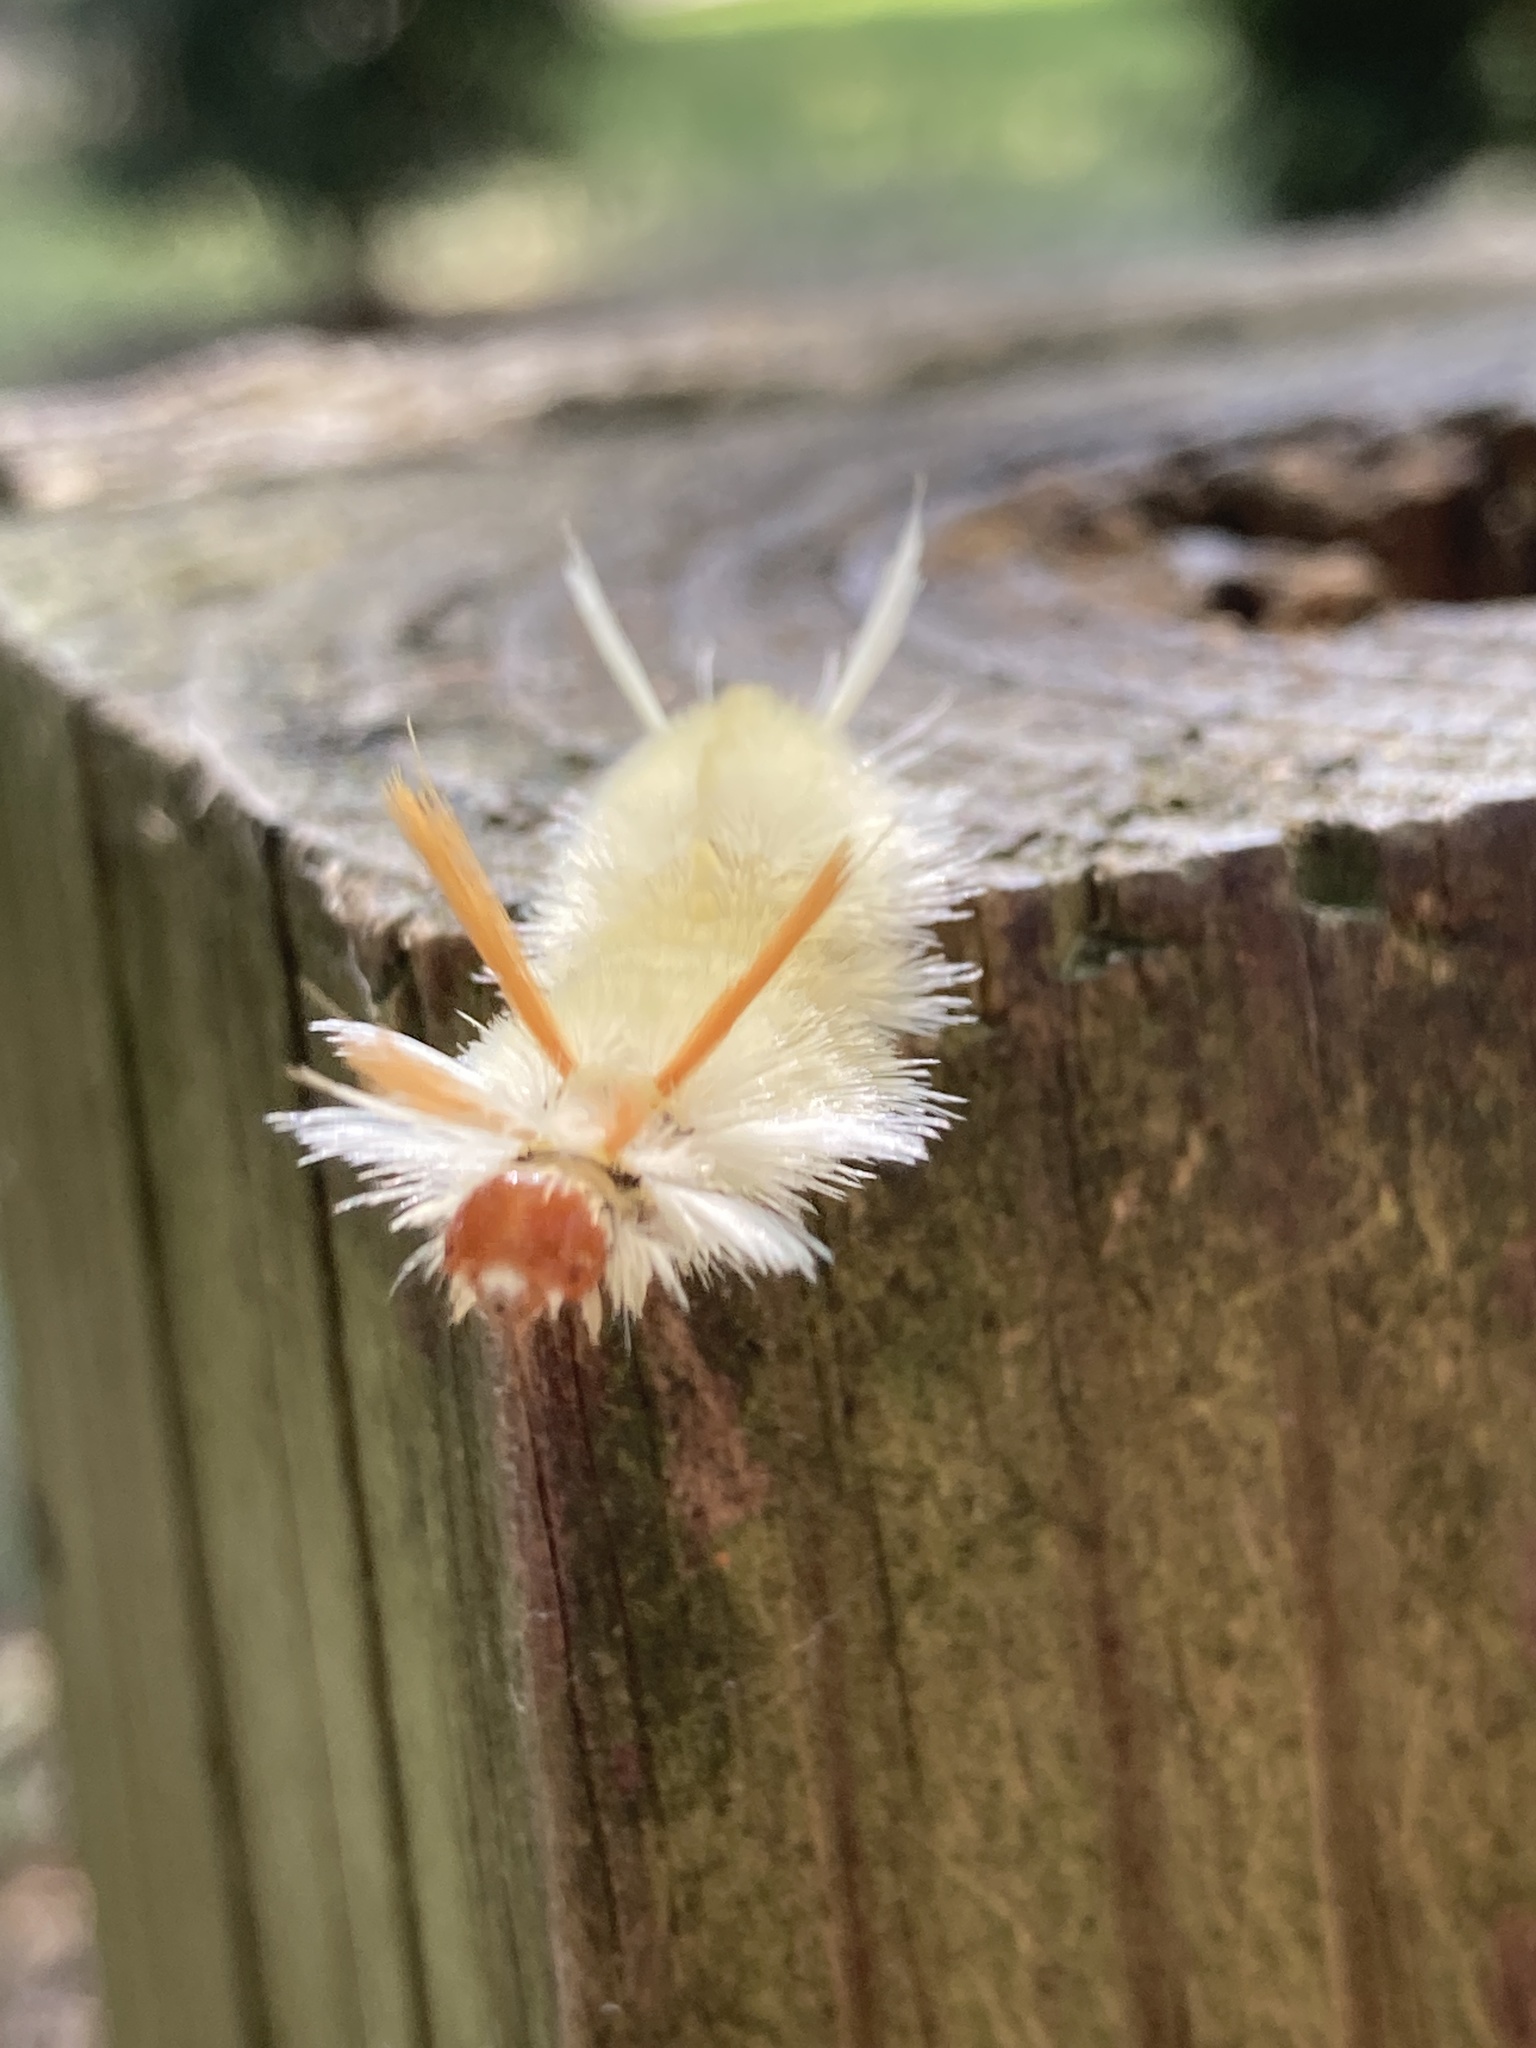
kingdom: Animalia
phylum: Arthropoda
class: Insecta
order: Lepidoptera
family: Erebidae
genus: Halysidota
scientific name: Halysidota harrisii
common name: Sycamore tussock moth
